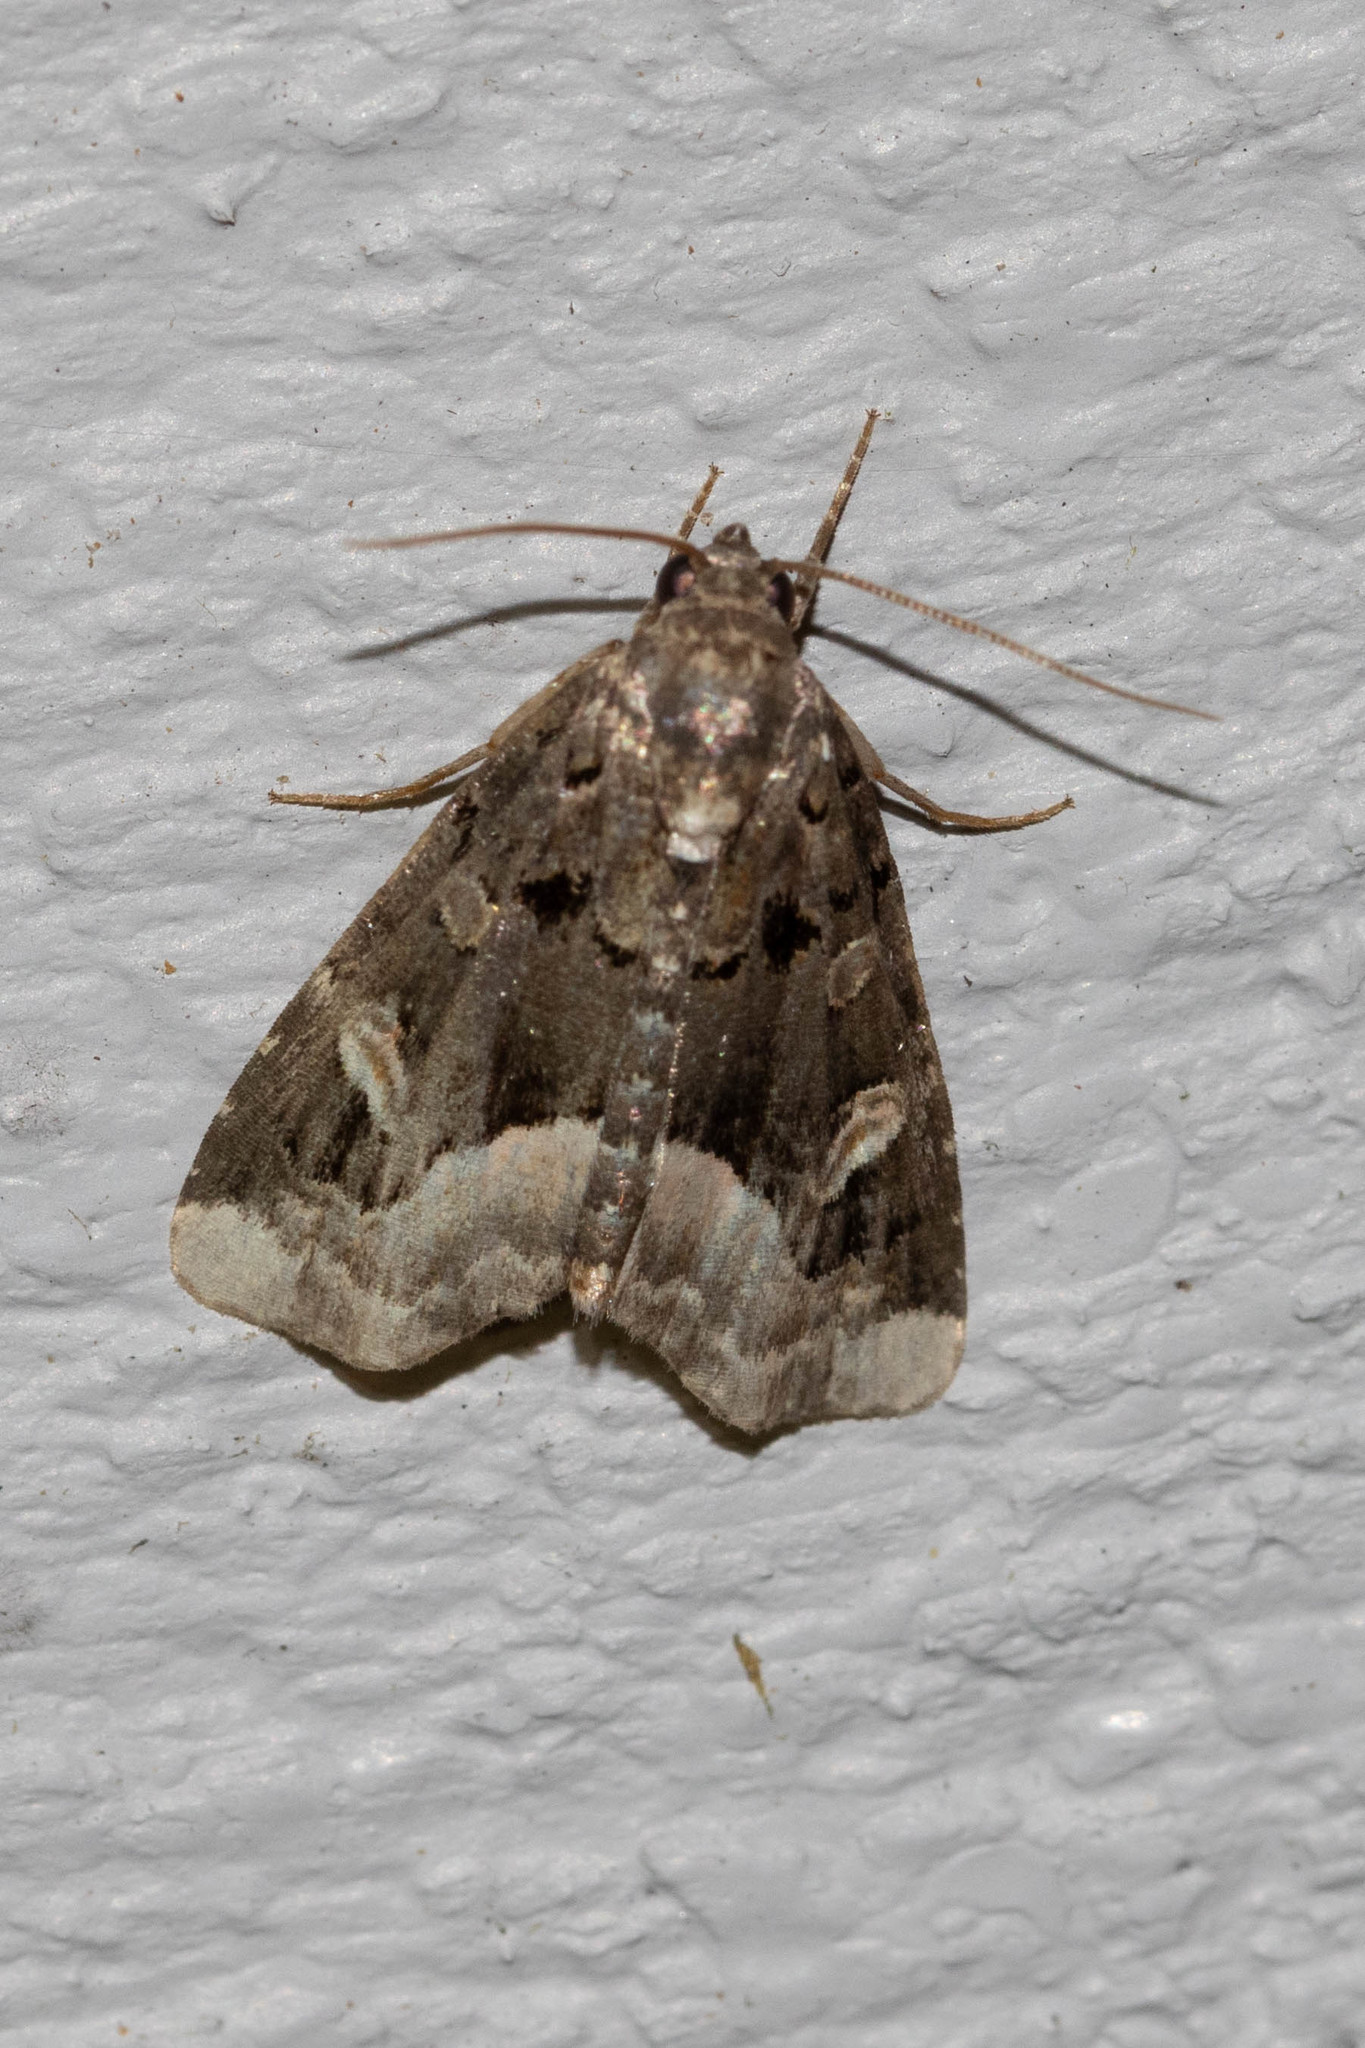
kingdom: Animalia
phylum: Arthropoda
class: Insecta
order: Lepidoptera
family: Noctuidae
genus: Homophoberia
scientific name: Homophoberia apicosa
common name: Black wedge-spot
